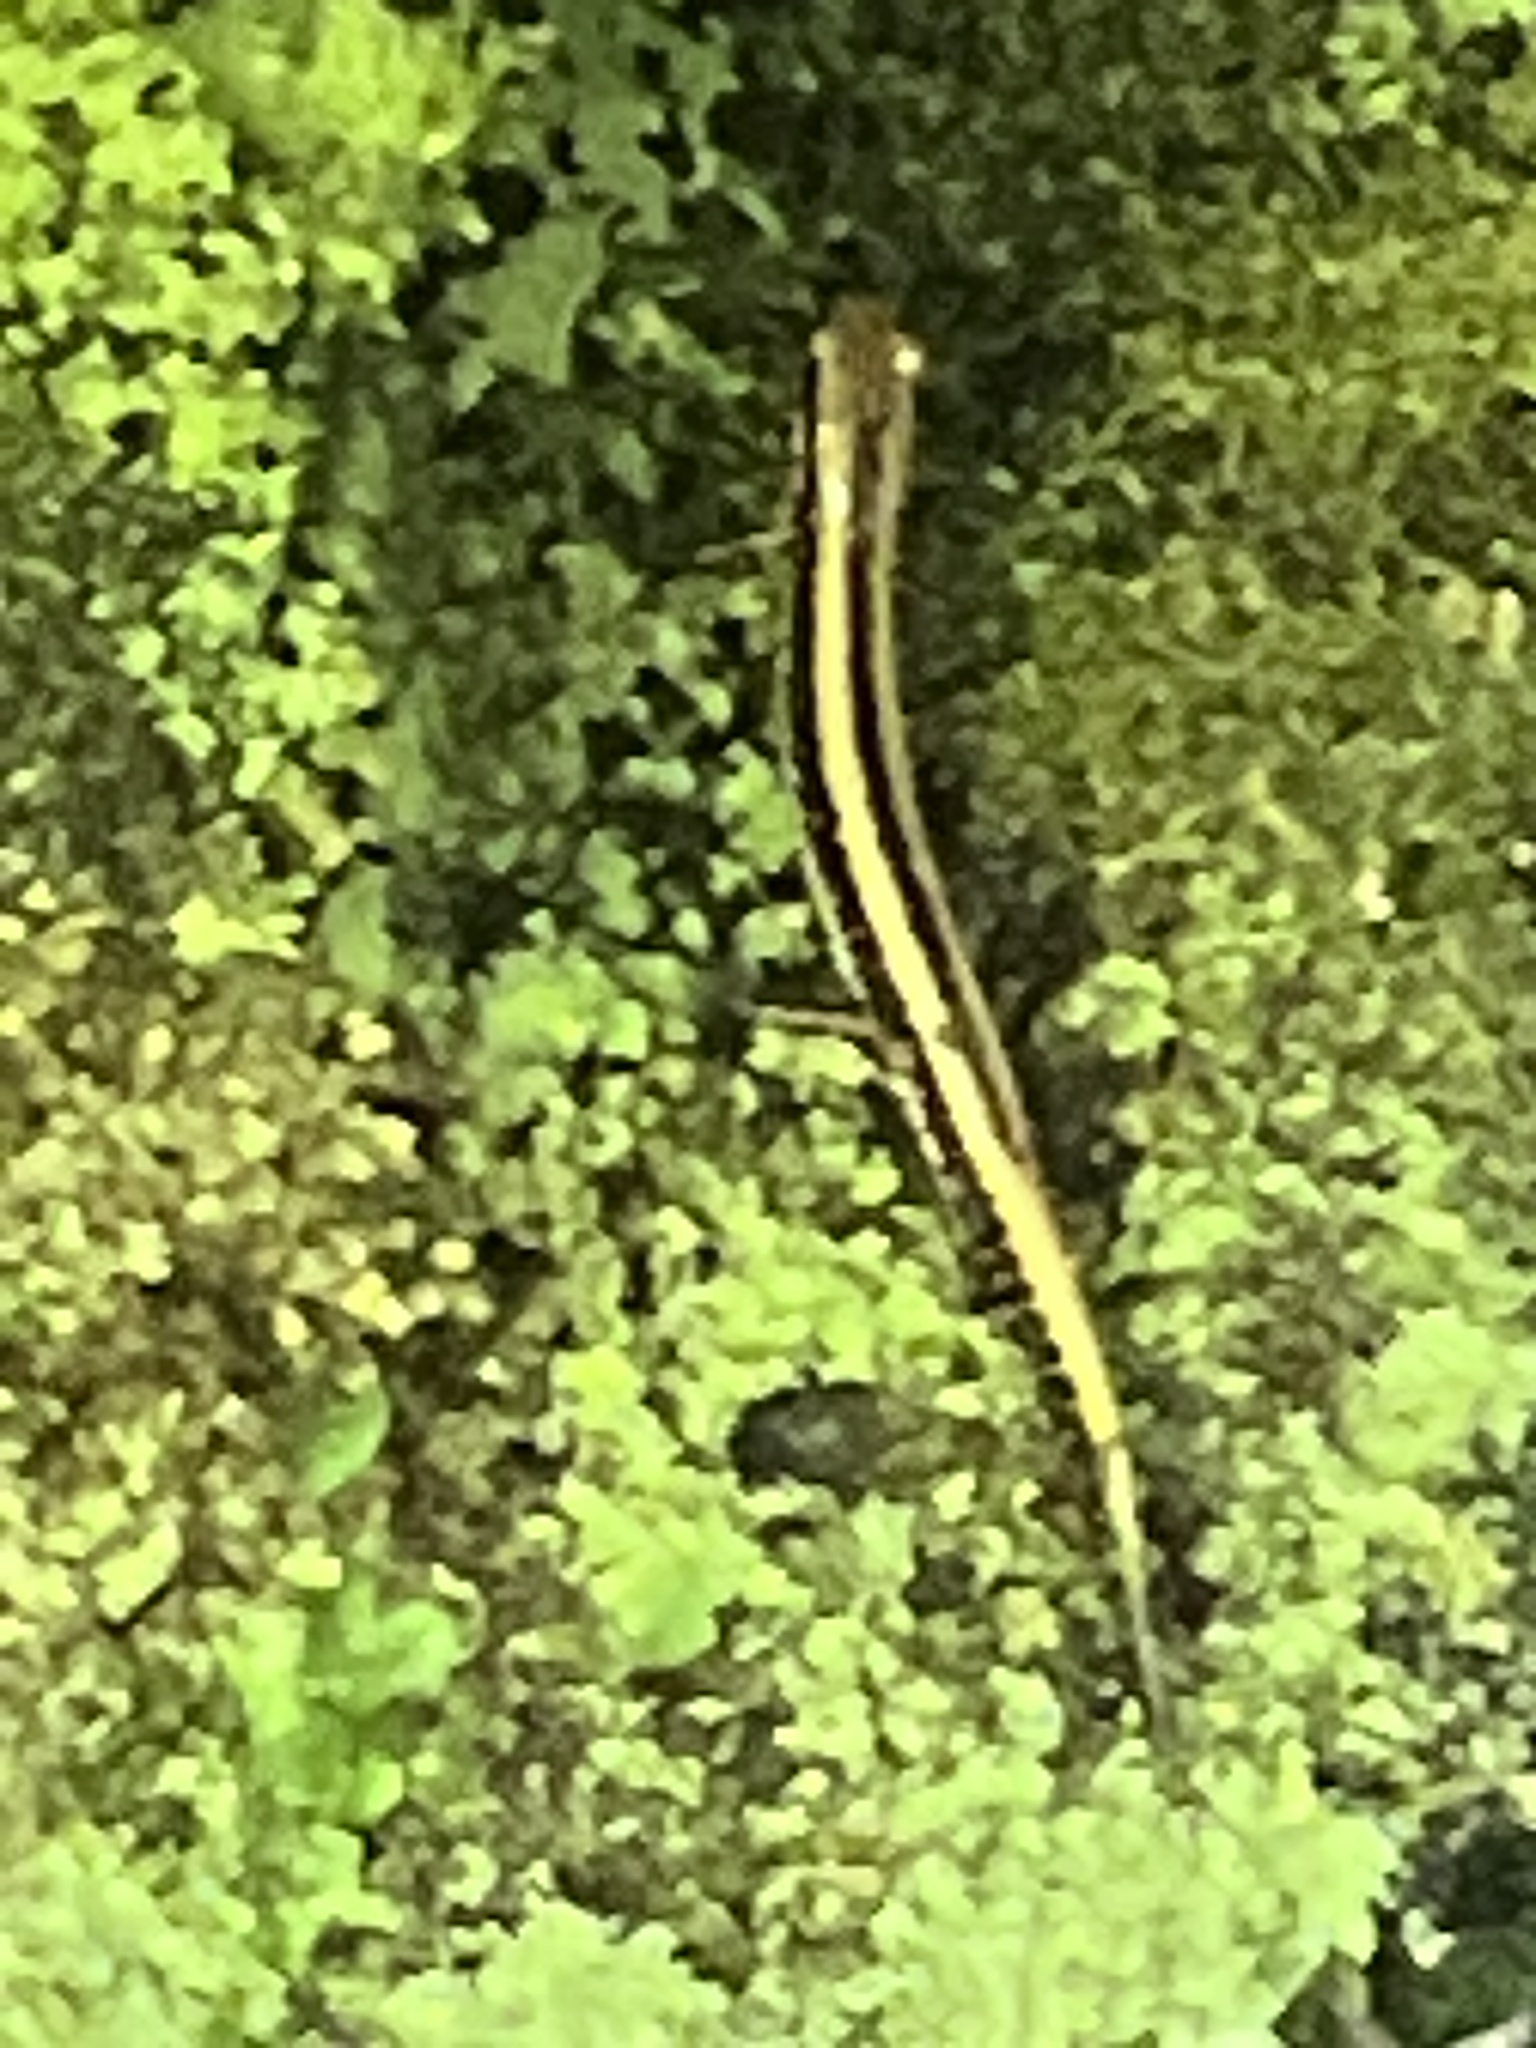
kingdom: Animalia
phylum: Chordata
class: Amphibia
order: Caudata
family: Plethodontidae
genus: Eurycea
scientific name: Eurycea guttolineata
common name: Three-lined salamander
